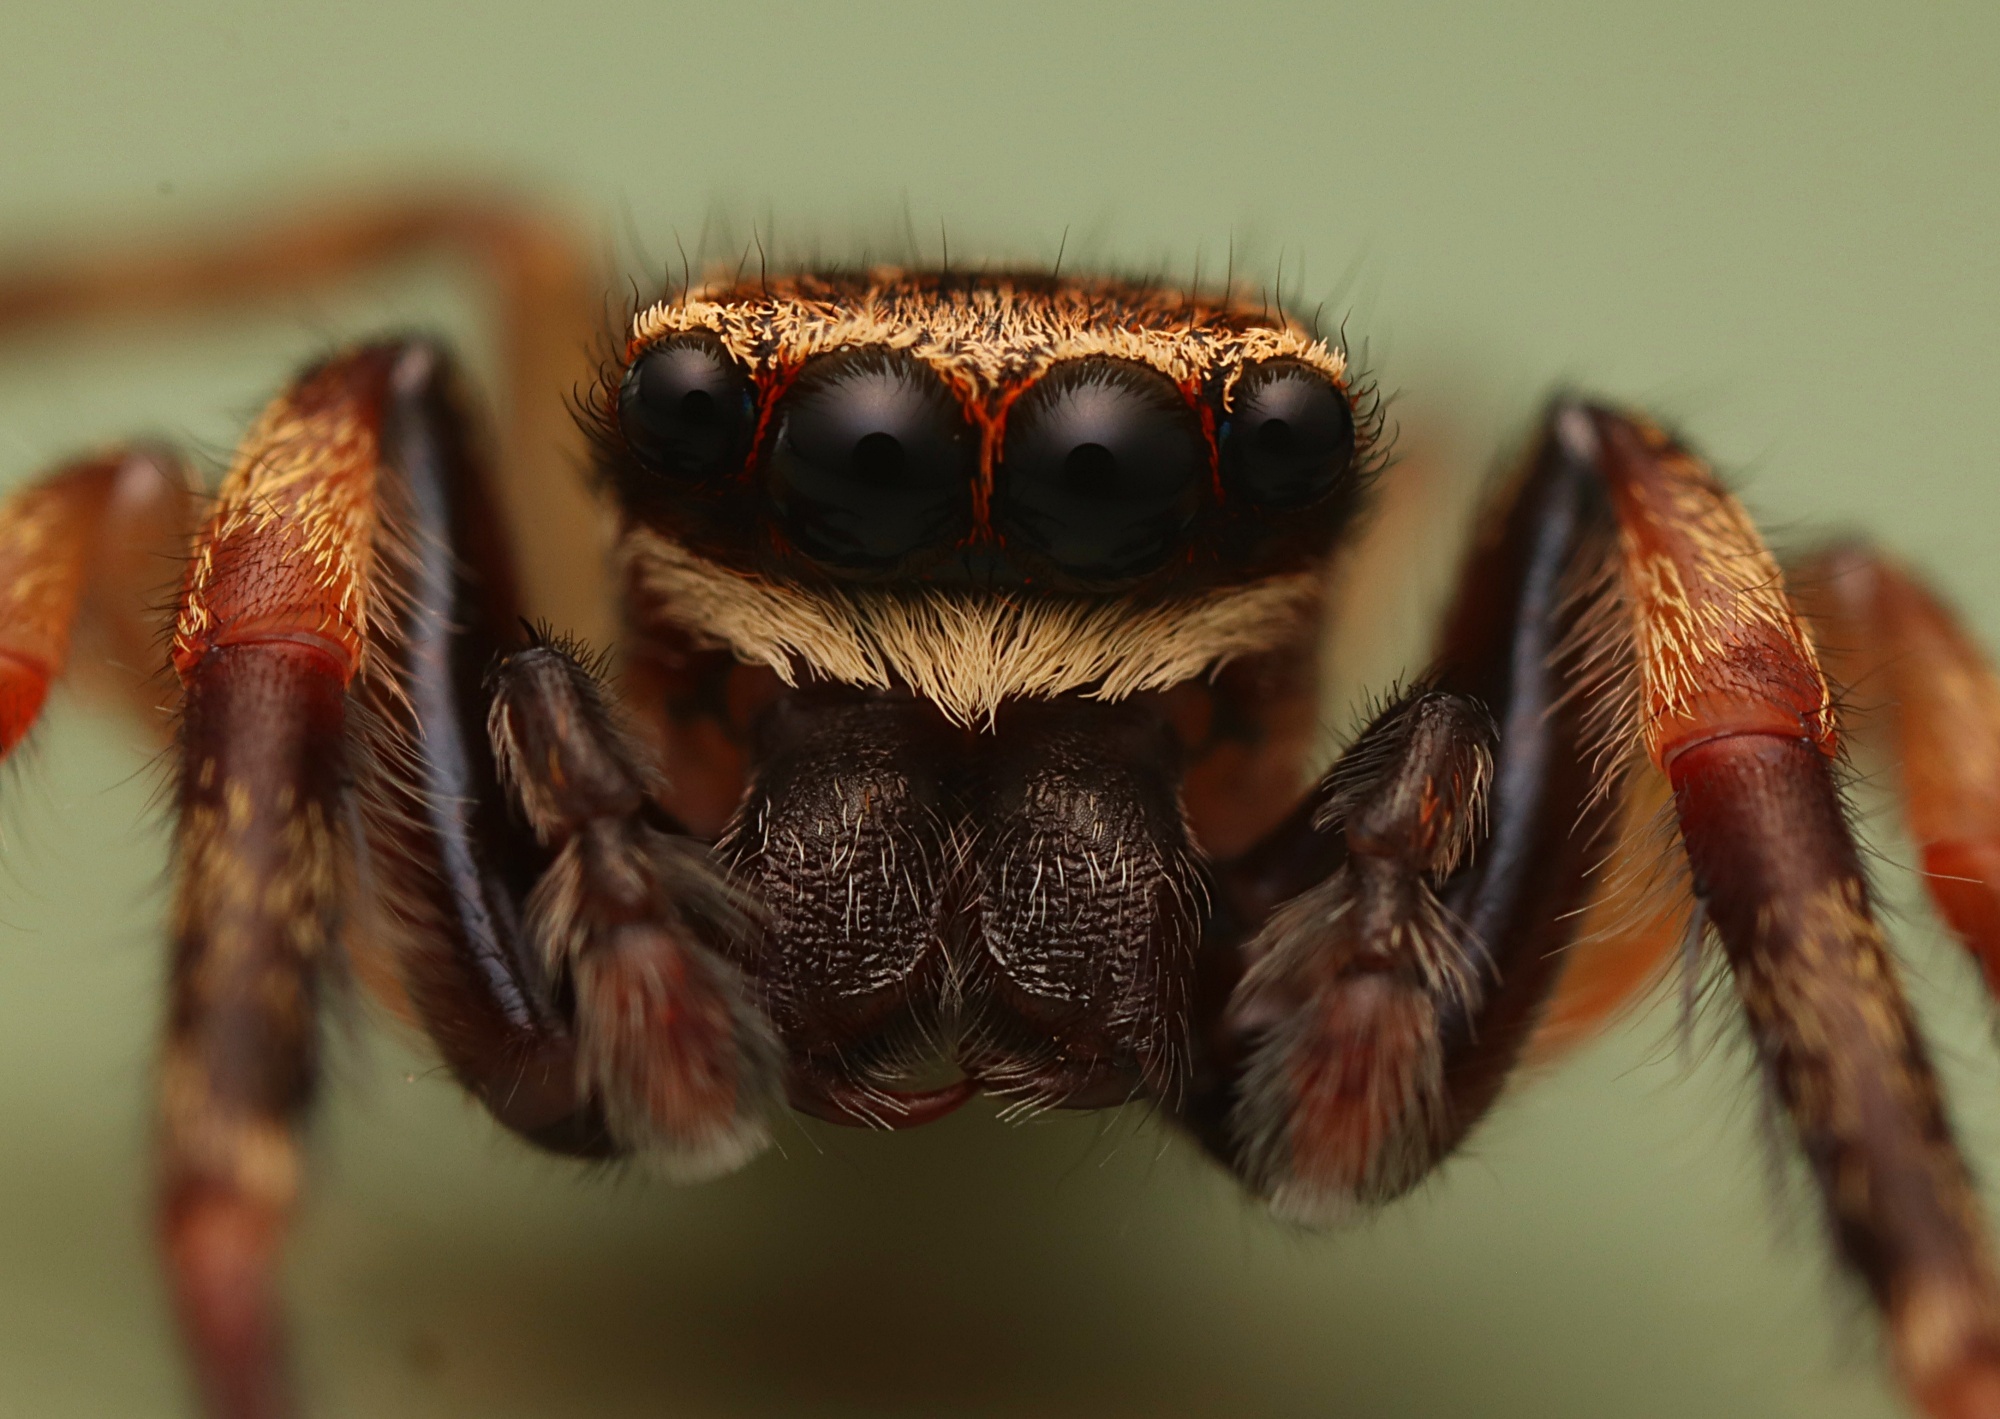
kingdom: Animalia
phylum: Arthropoda
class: Arachnida
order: Araneae
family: Salticidae
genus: Trite
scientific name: Trite auricoma
